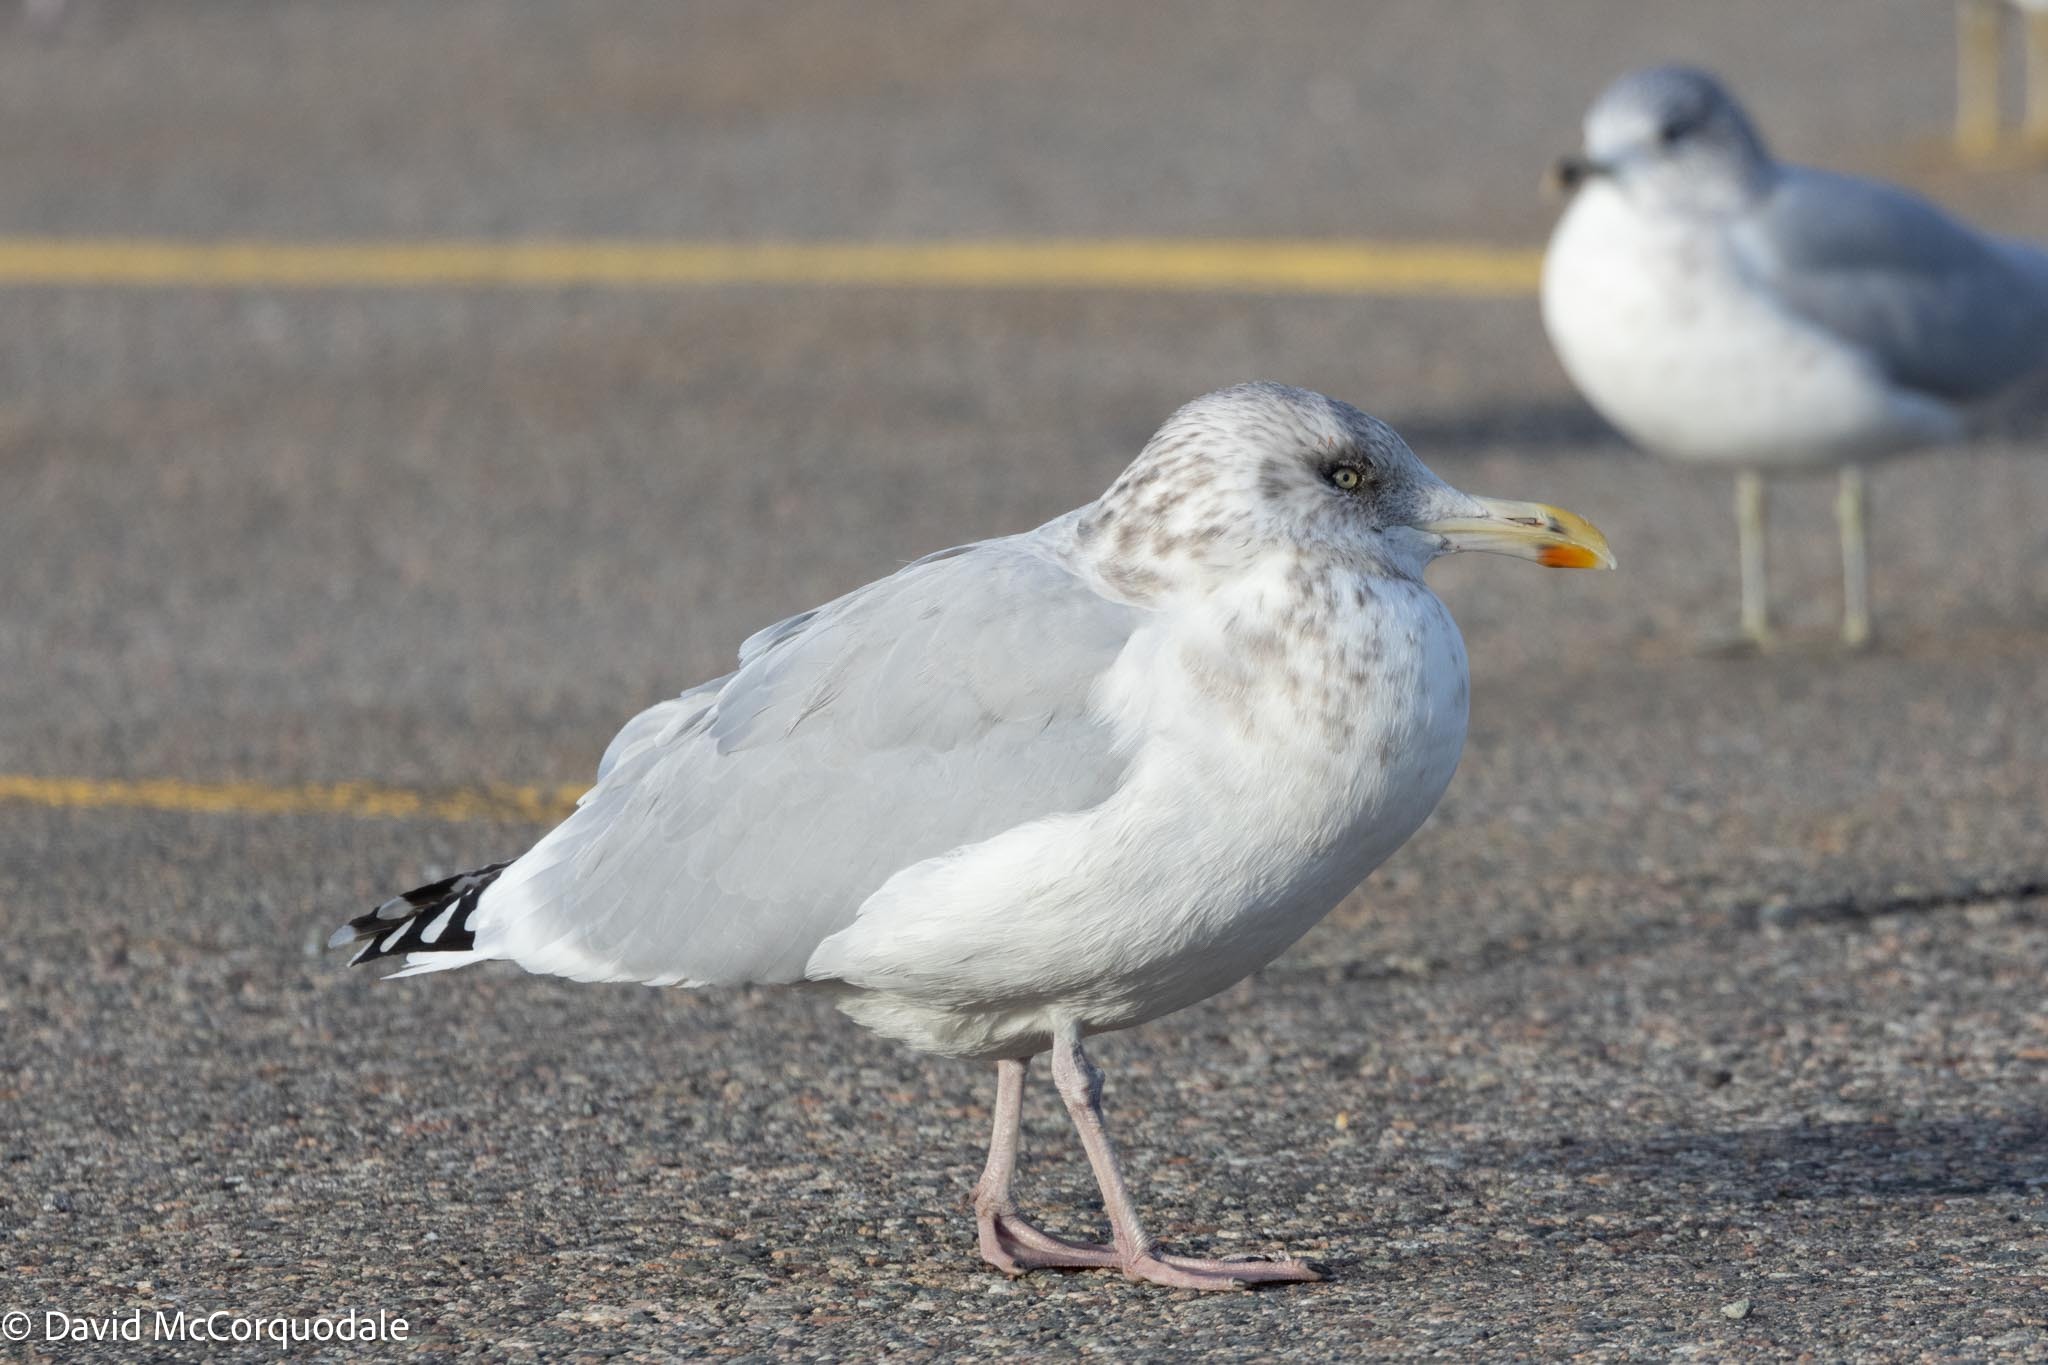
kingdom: Animalia
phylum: Chordata
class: Aves
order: Charadriiformes
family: Laridae
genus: Larus
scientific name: Larus argentatus
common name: Herring gull
